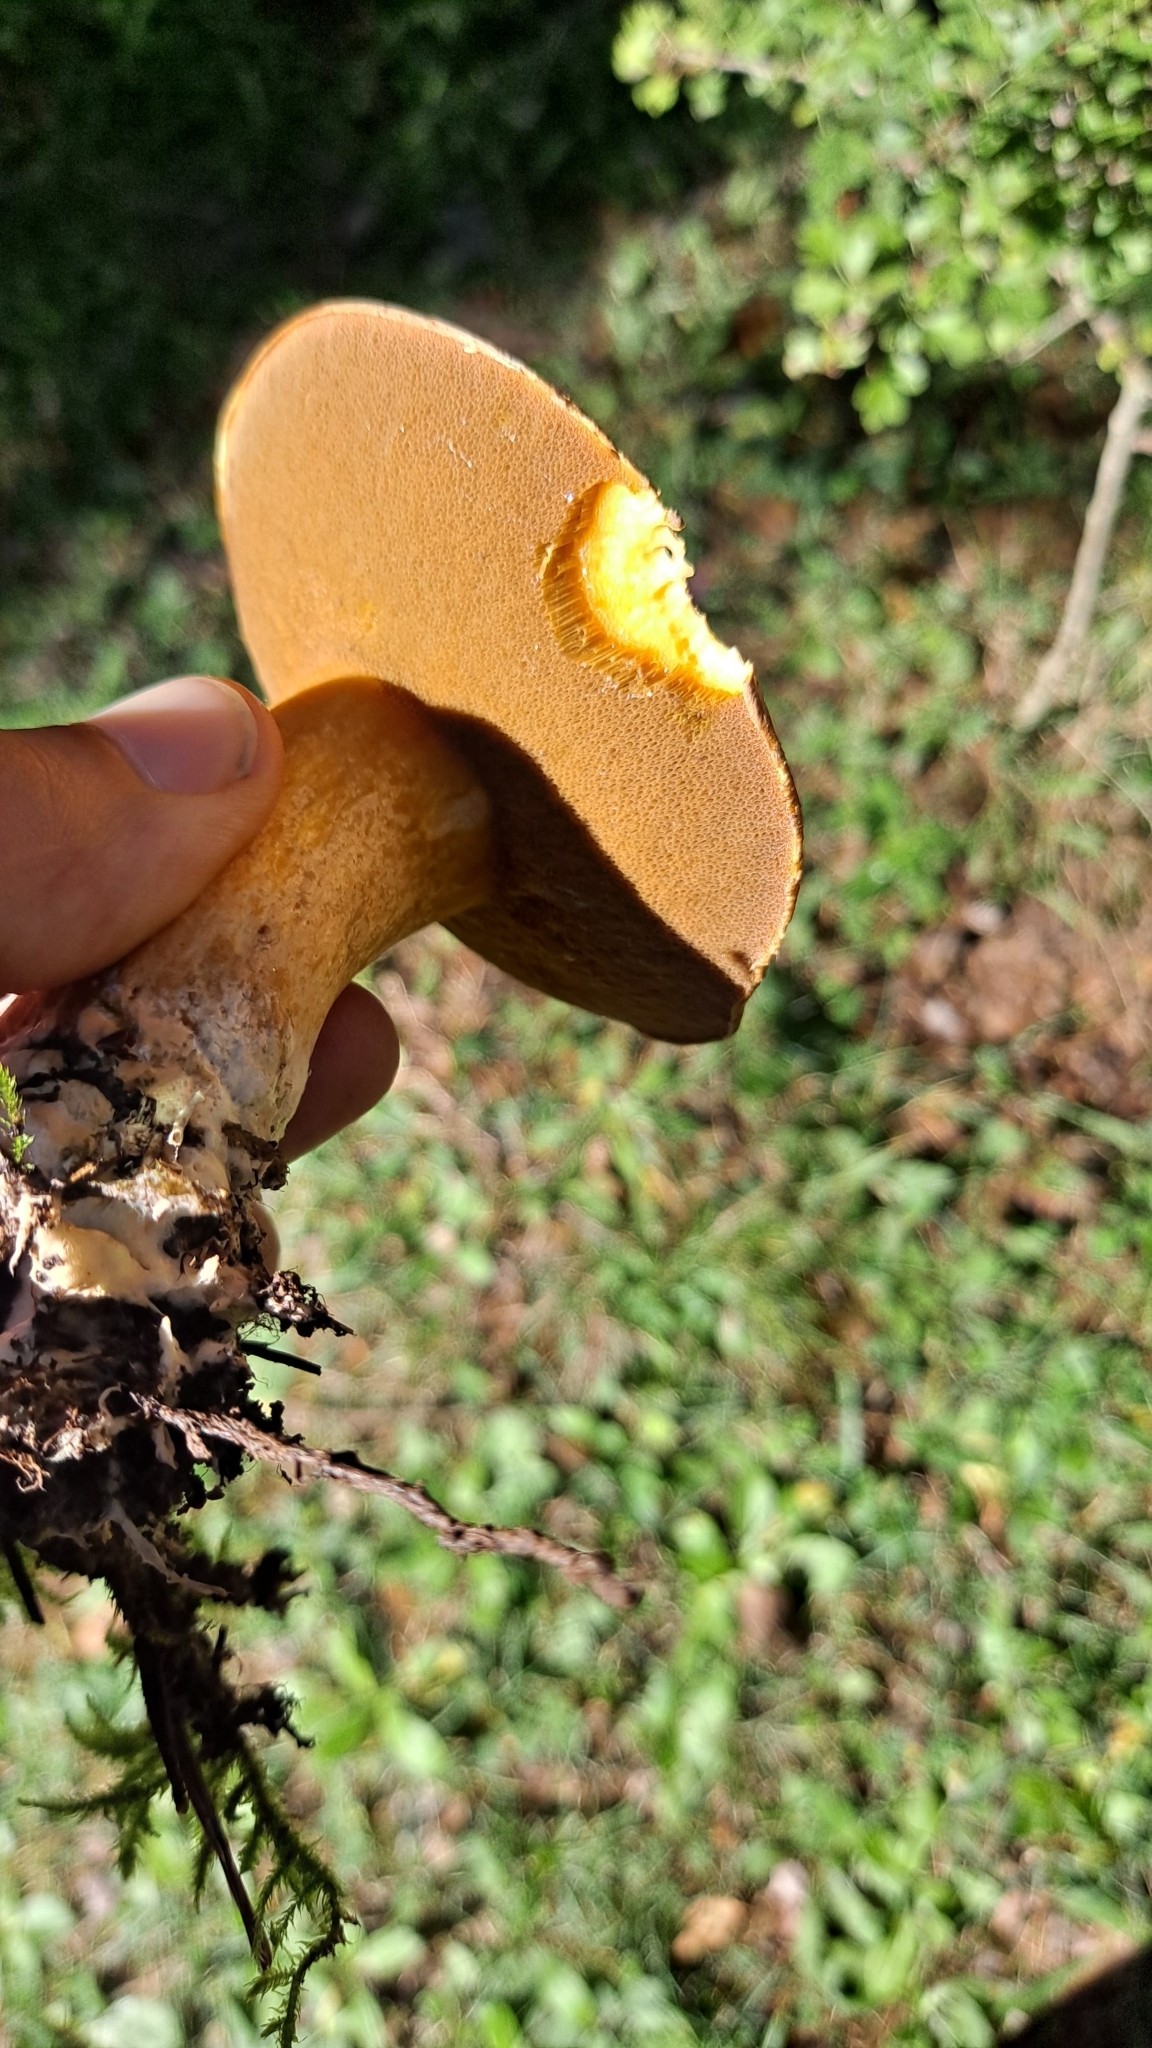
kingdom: Fungi
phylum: Basidiomycota
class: Agaricomycetes
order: Boletales
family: Suillaceae
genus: Suillus
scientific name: Suillus variegatus
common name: Velvet bolete
